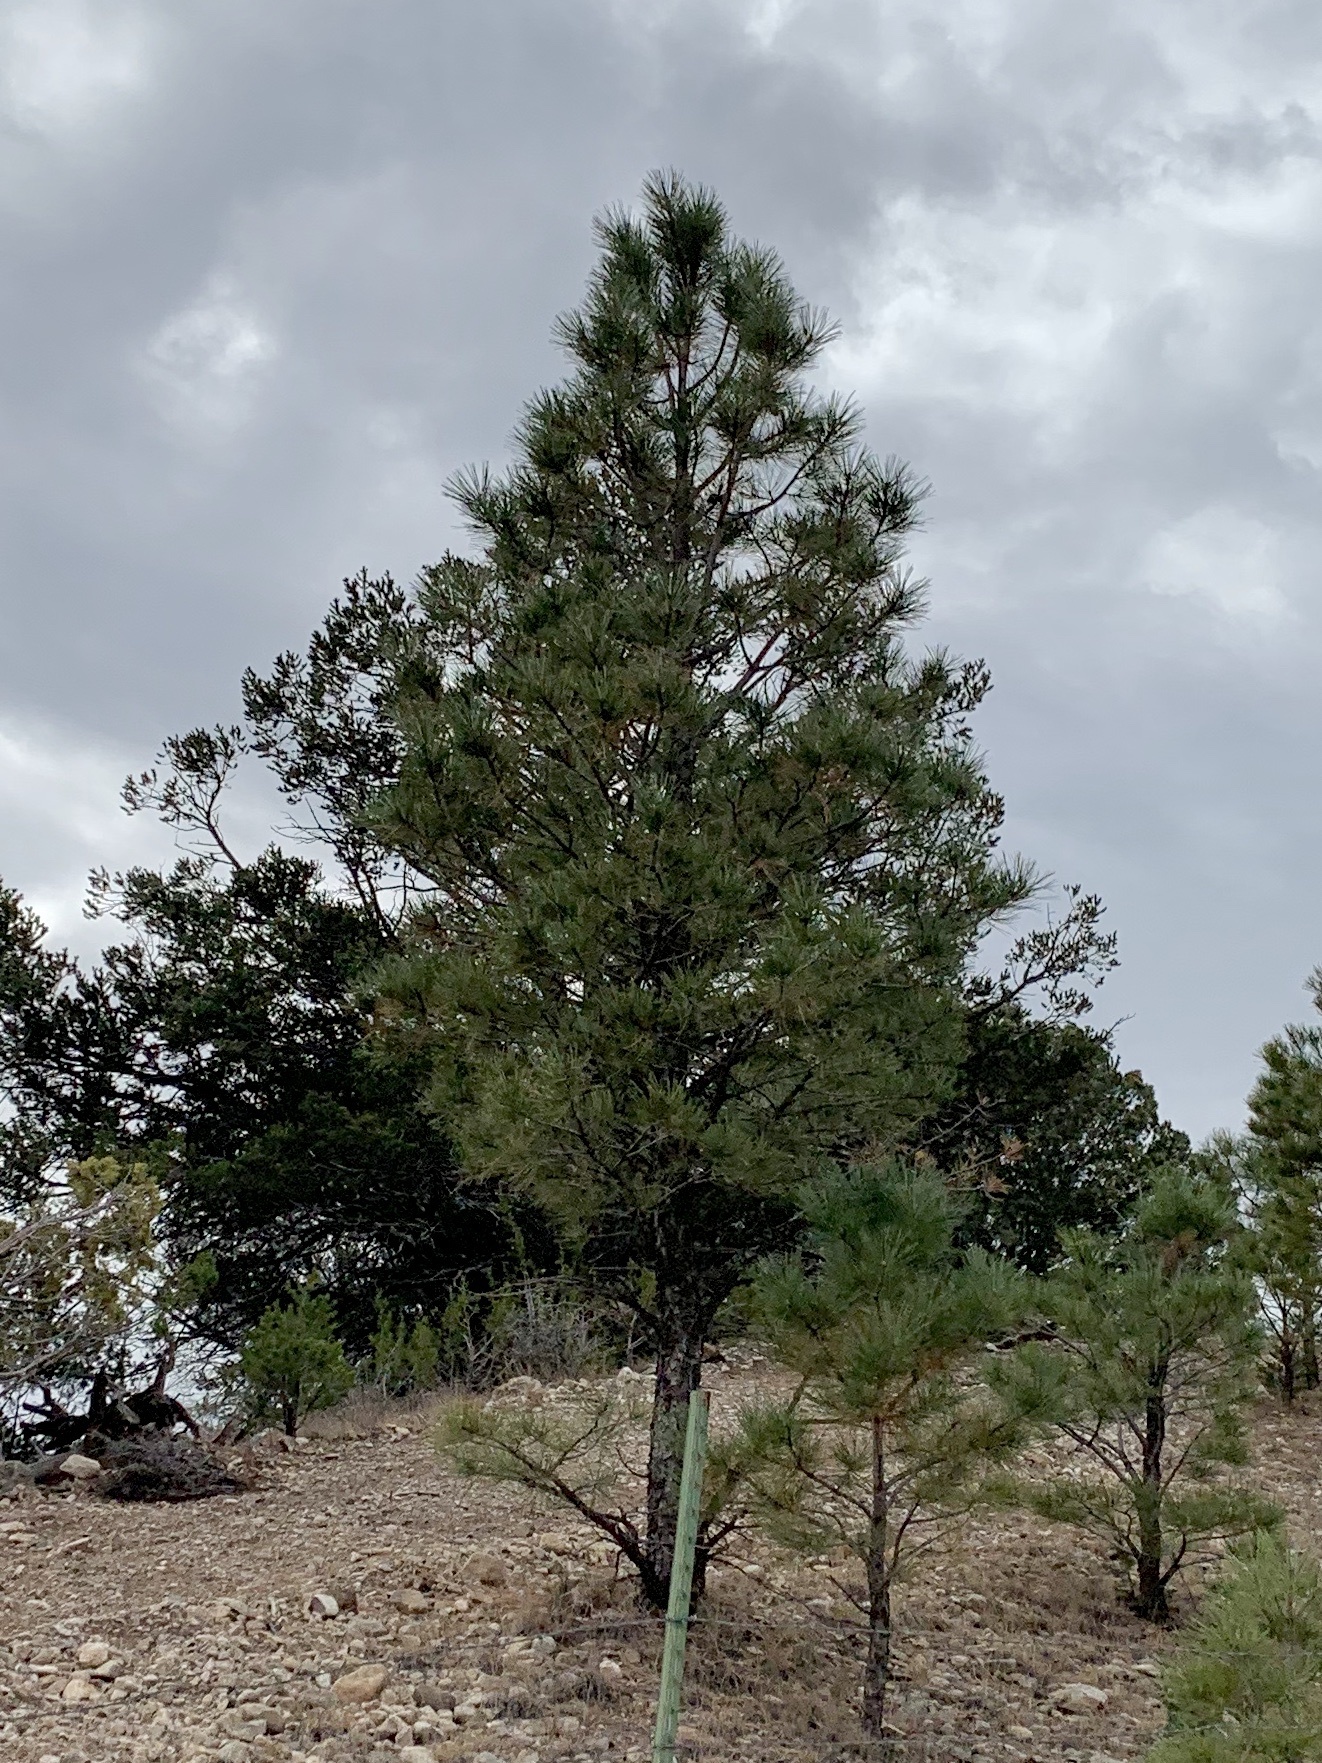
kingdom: Plantae
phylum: Tracheophyta
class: Pinopsida
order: Pinales
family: Pinaceae
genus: Pinus
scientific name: Pinus ponderosa
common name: Western yellow-pine
